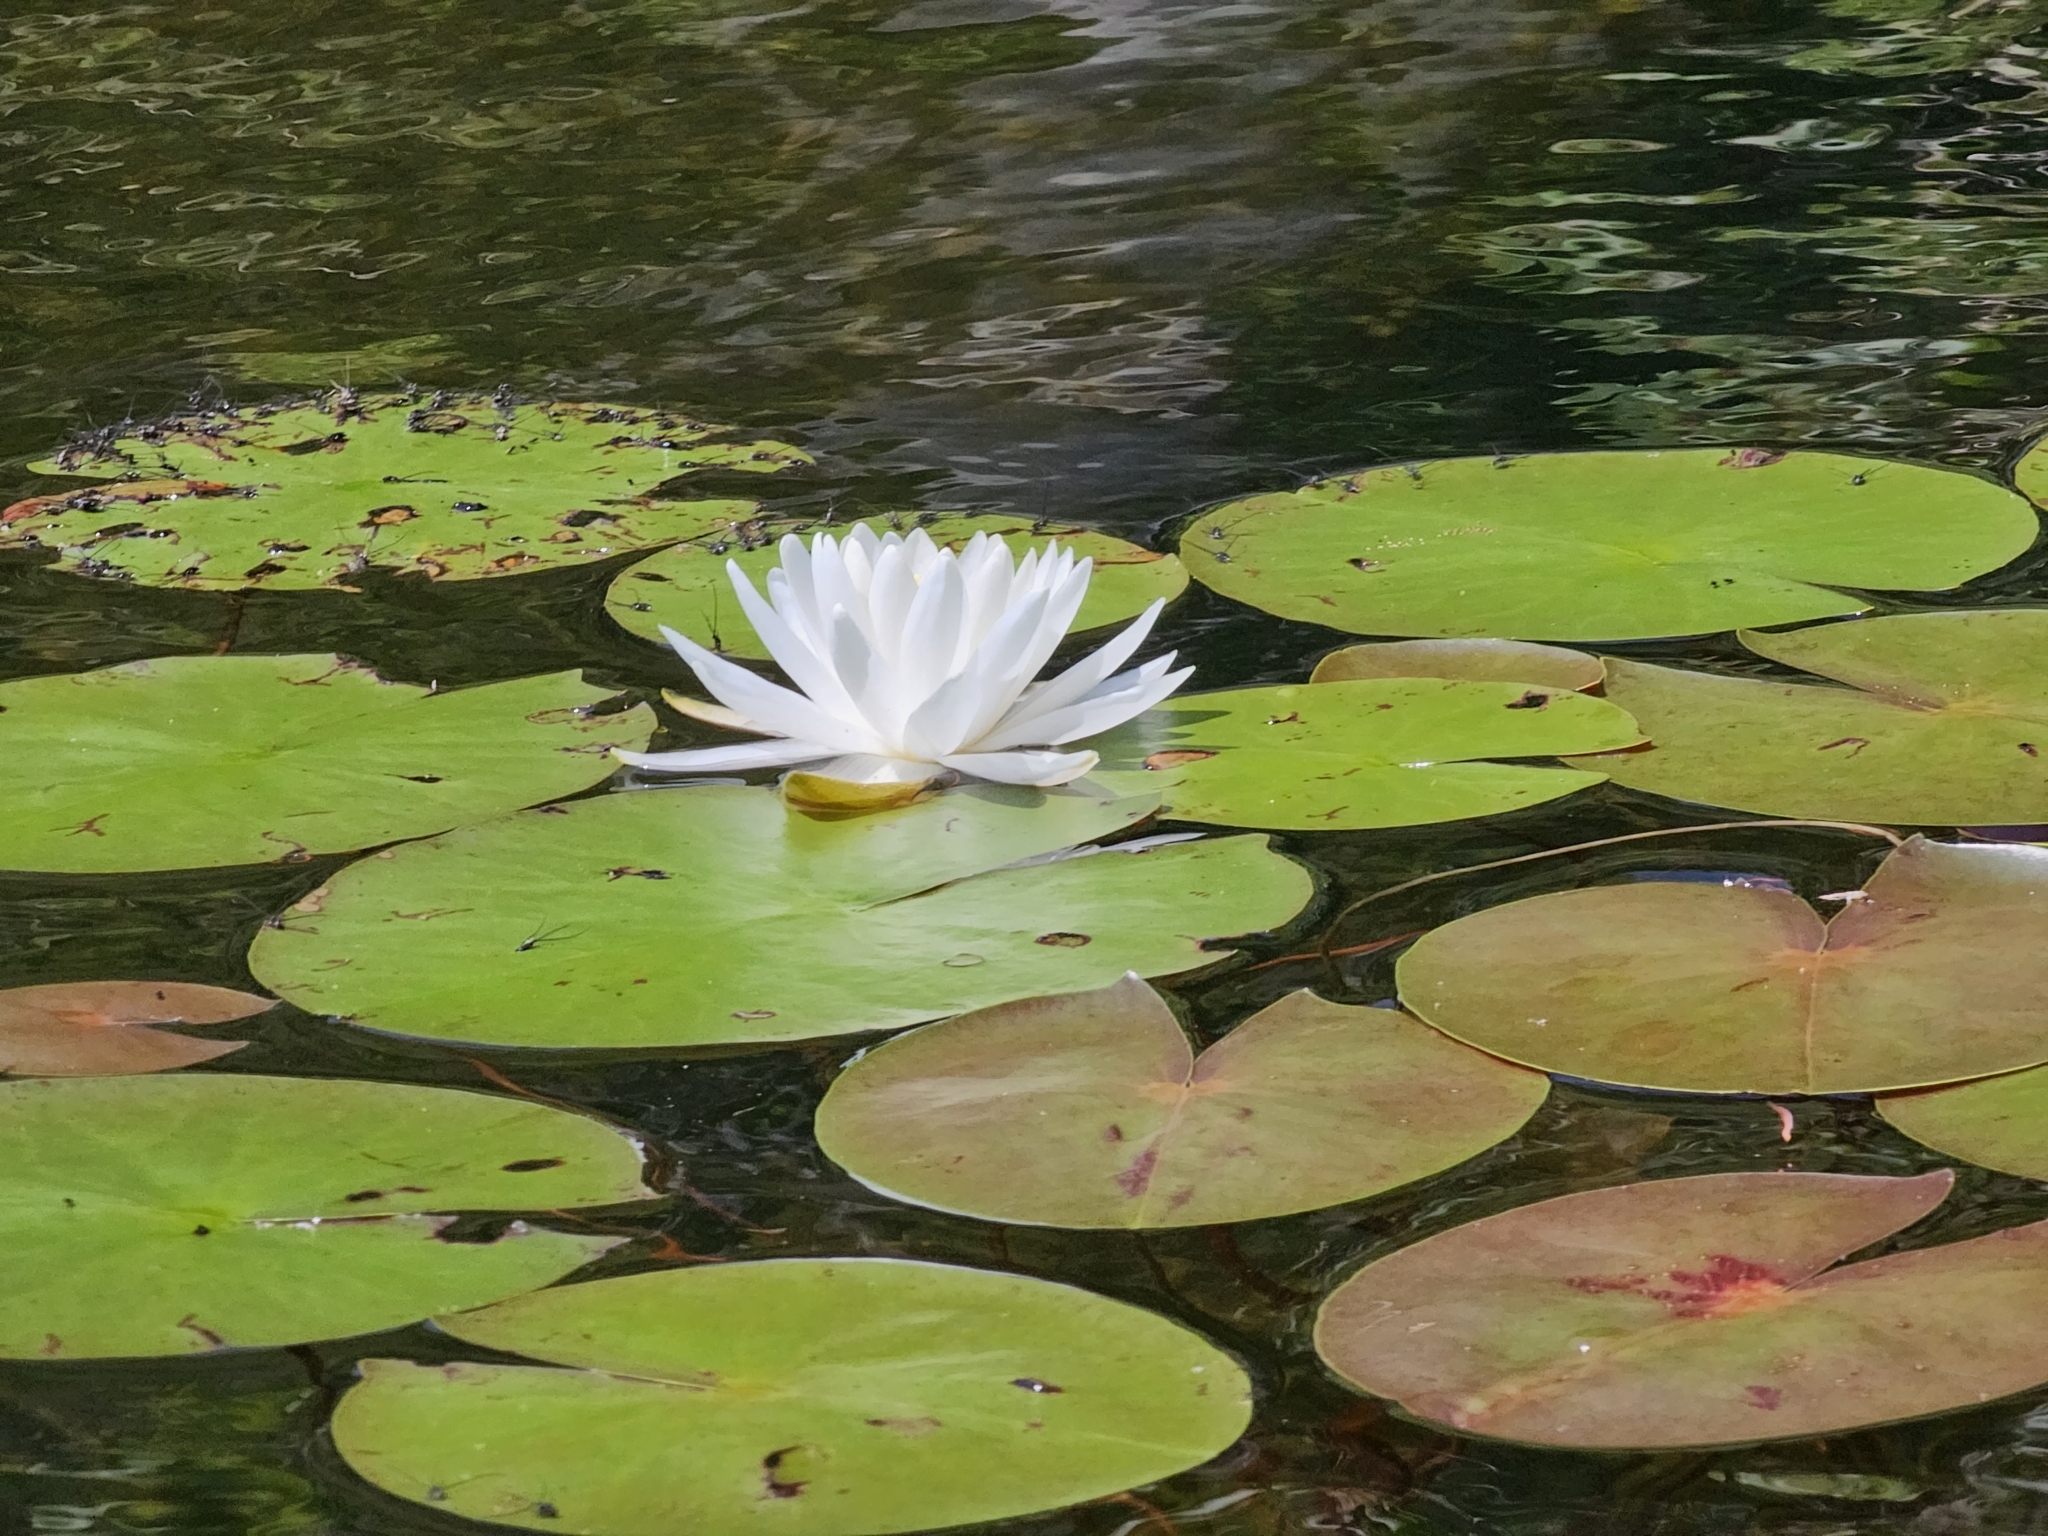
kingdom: Plantae
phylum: Tracheophyta
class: Magnoliopsida
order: Nymphaeales
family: Nymphaeaceae
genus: Nymphaea
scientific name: Nymphaea odorata
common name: Fragrant water-lily
